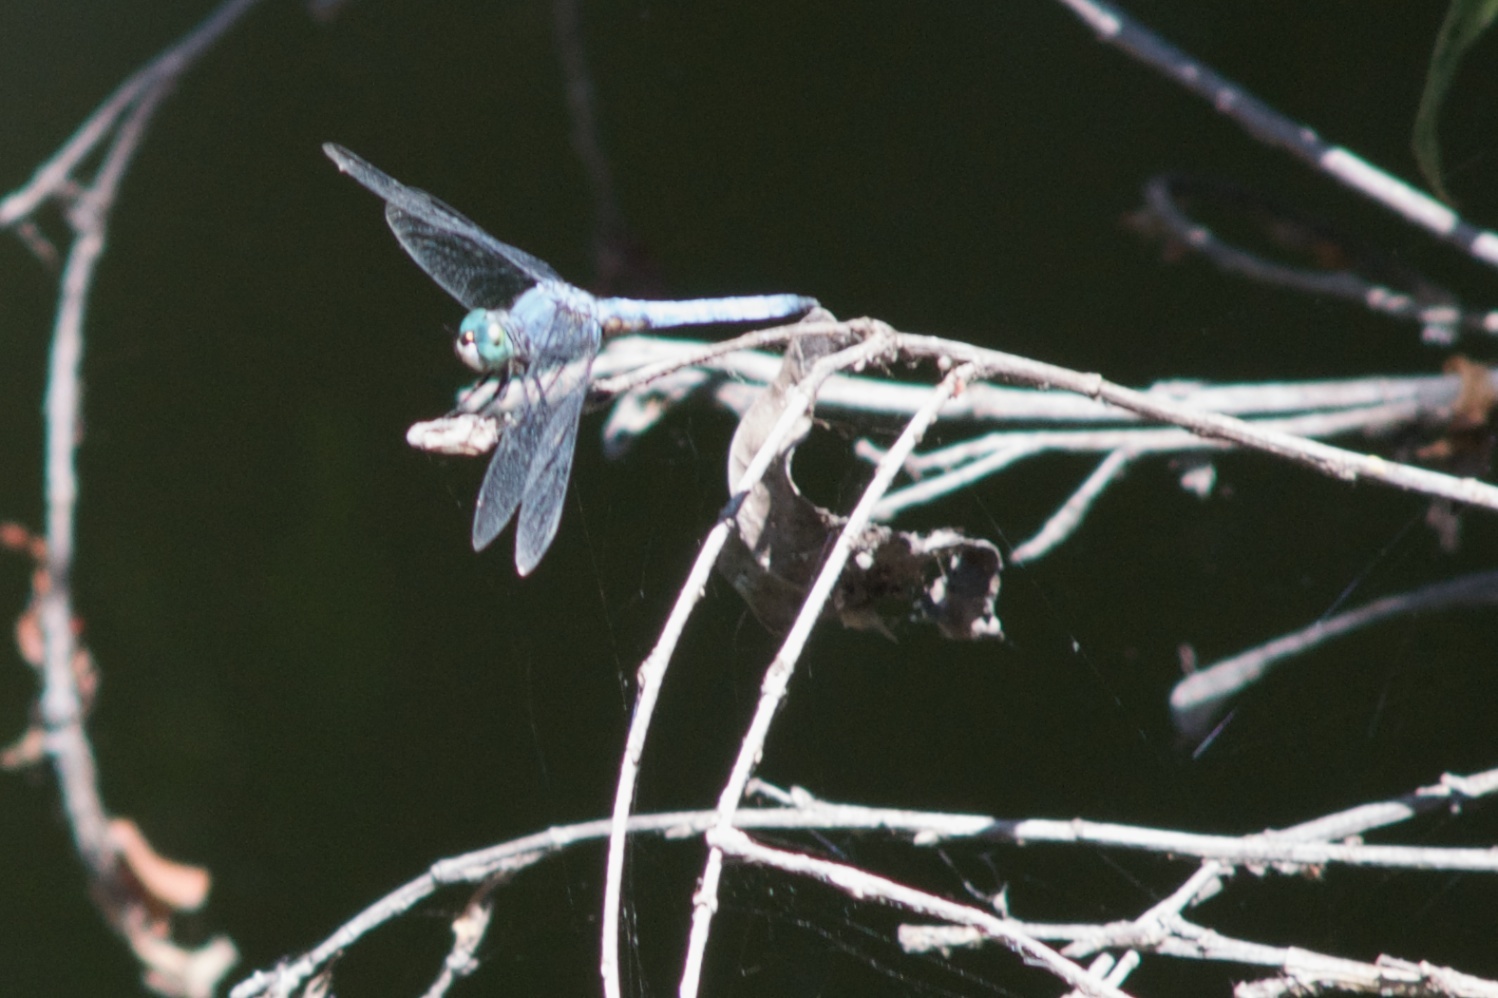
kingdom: Animalia
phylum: Arthropoda
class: Insecta
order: Odonata
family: Libellulidae
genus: Pachydiplax
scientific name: Pachydiplax longipennis
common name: Blue dasher
